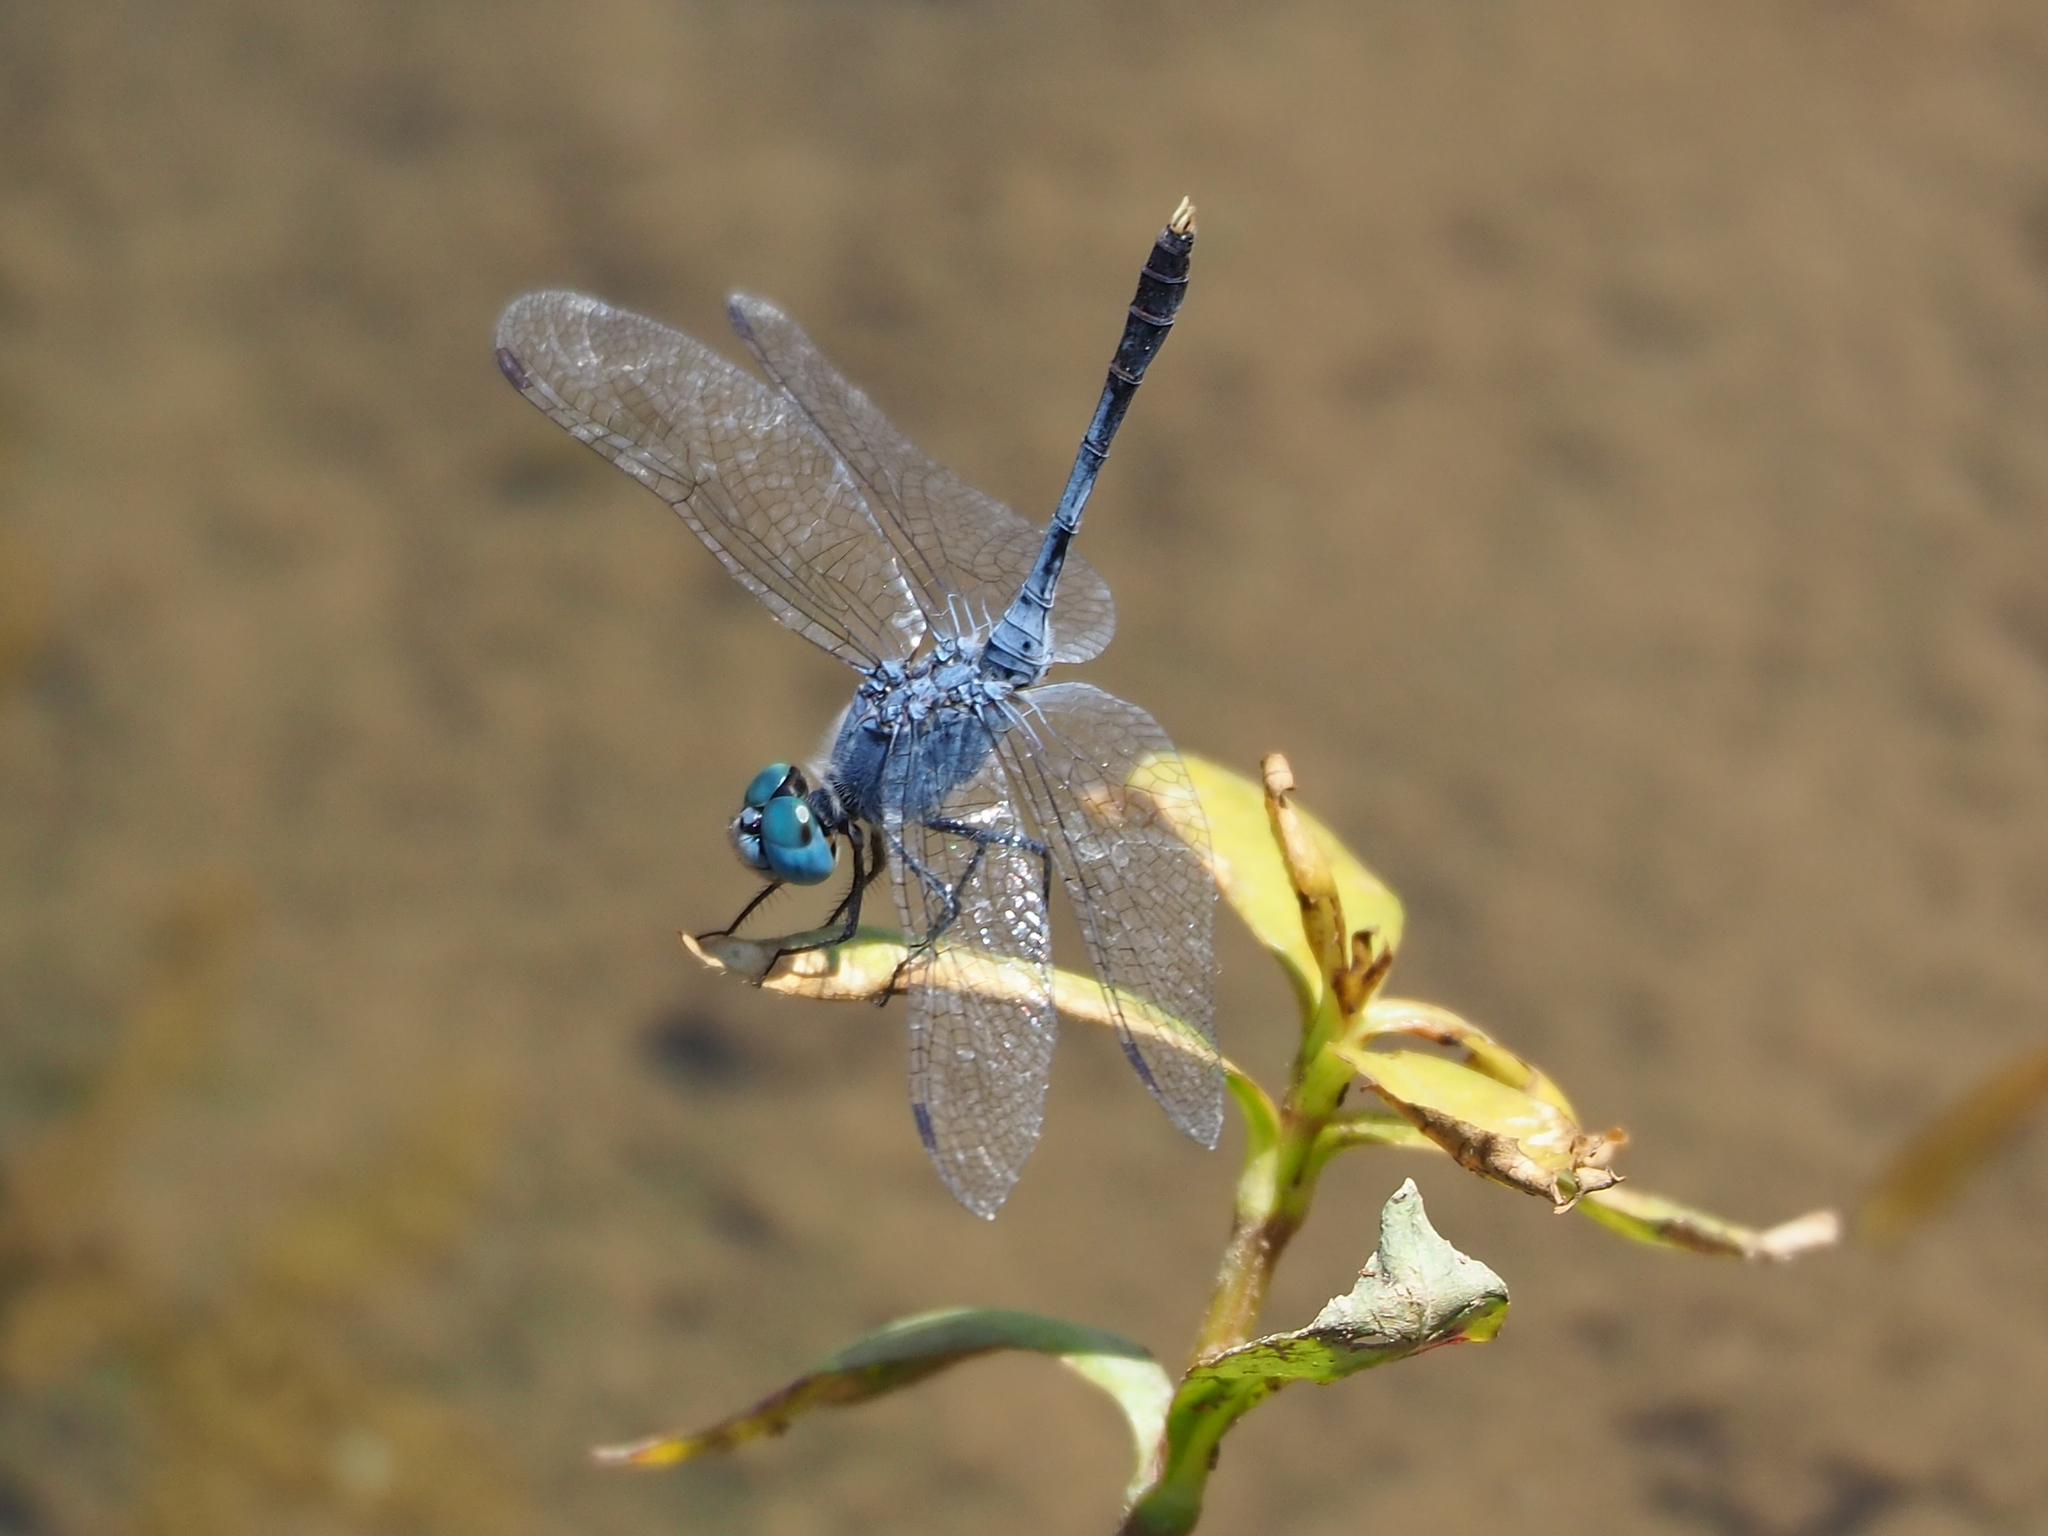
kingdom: Animalia
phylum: Arthropoda
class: Insecta
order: Odonata
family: Libellulidae
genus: Diplacodes
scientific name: Diplacodes trivialis
